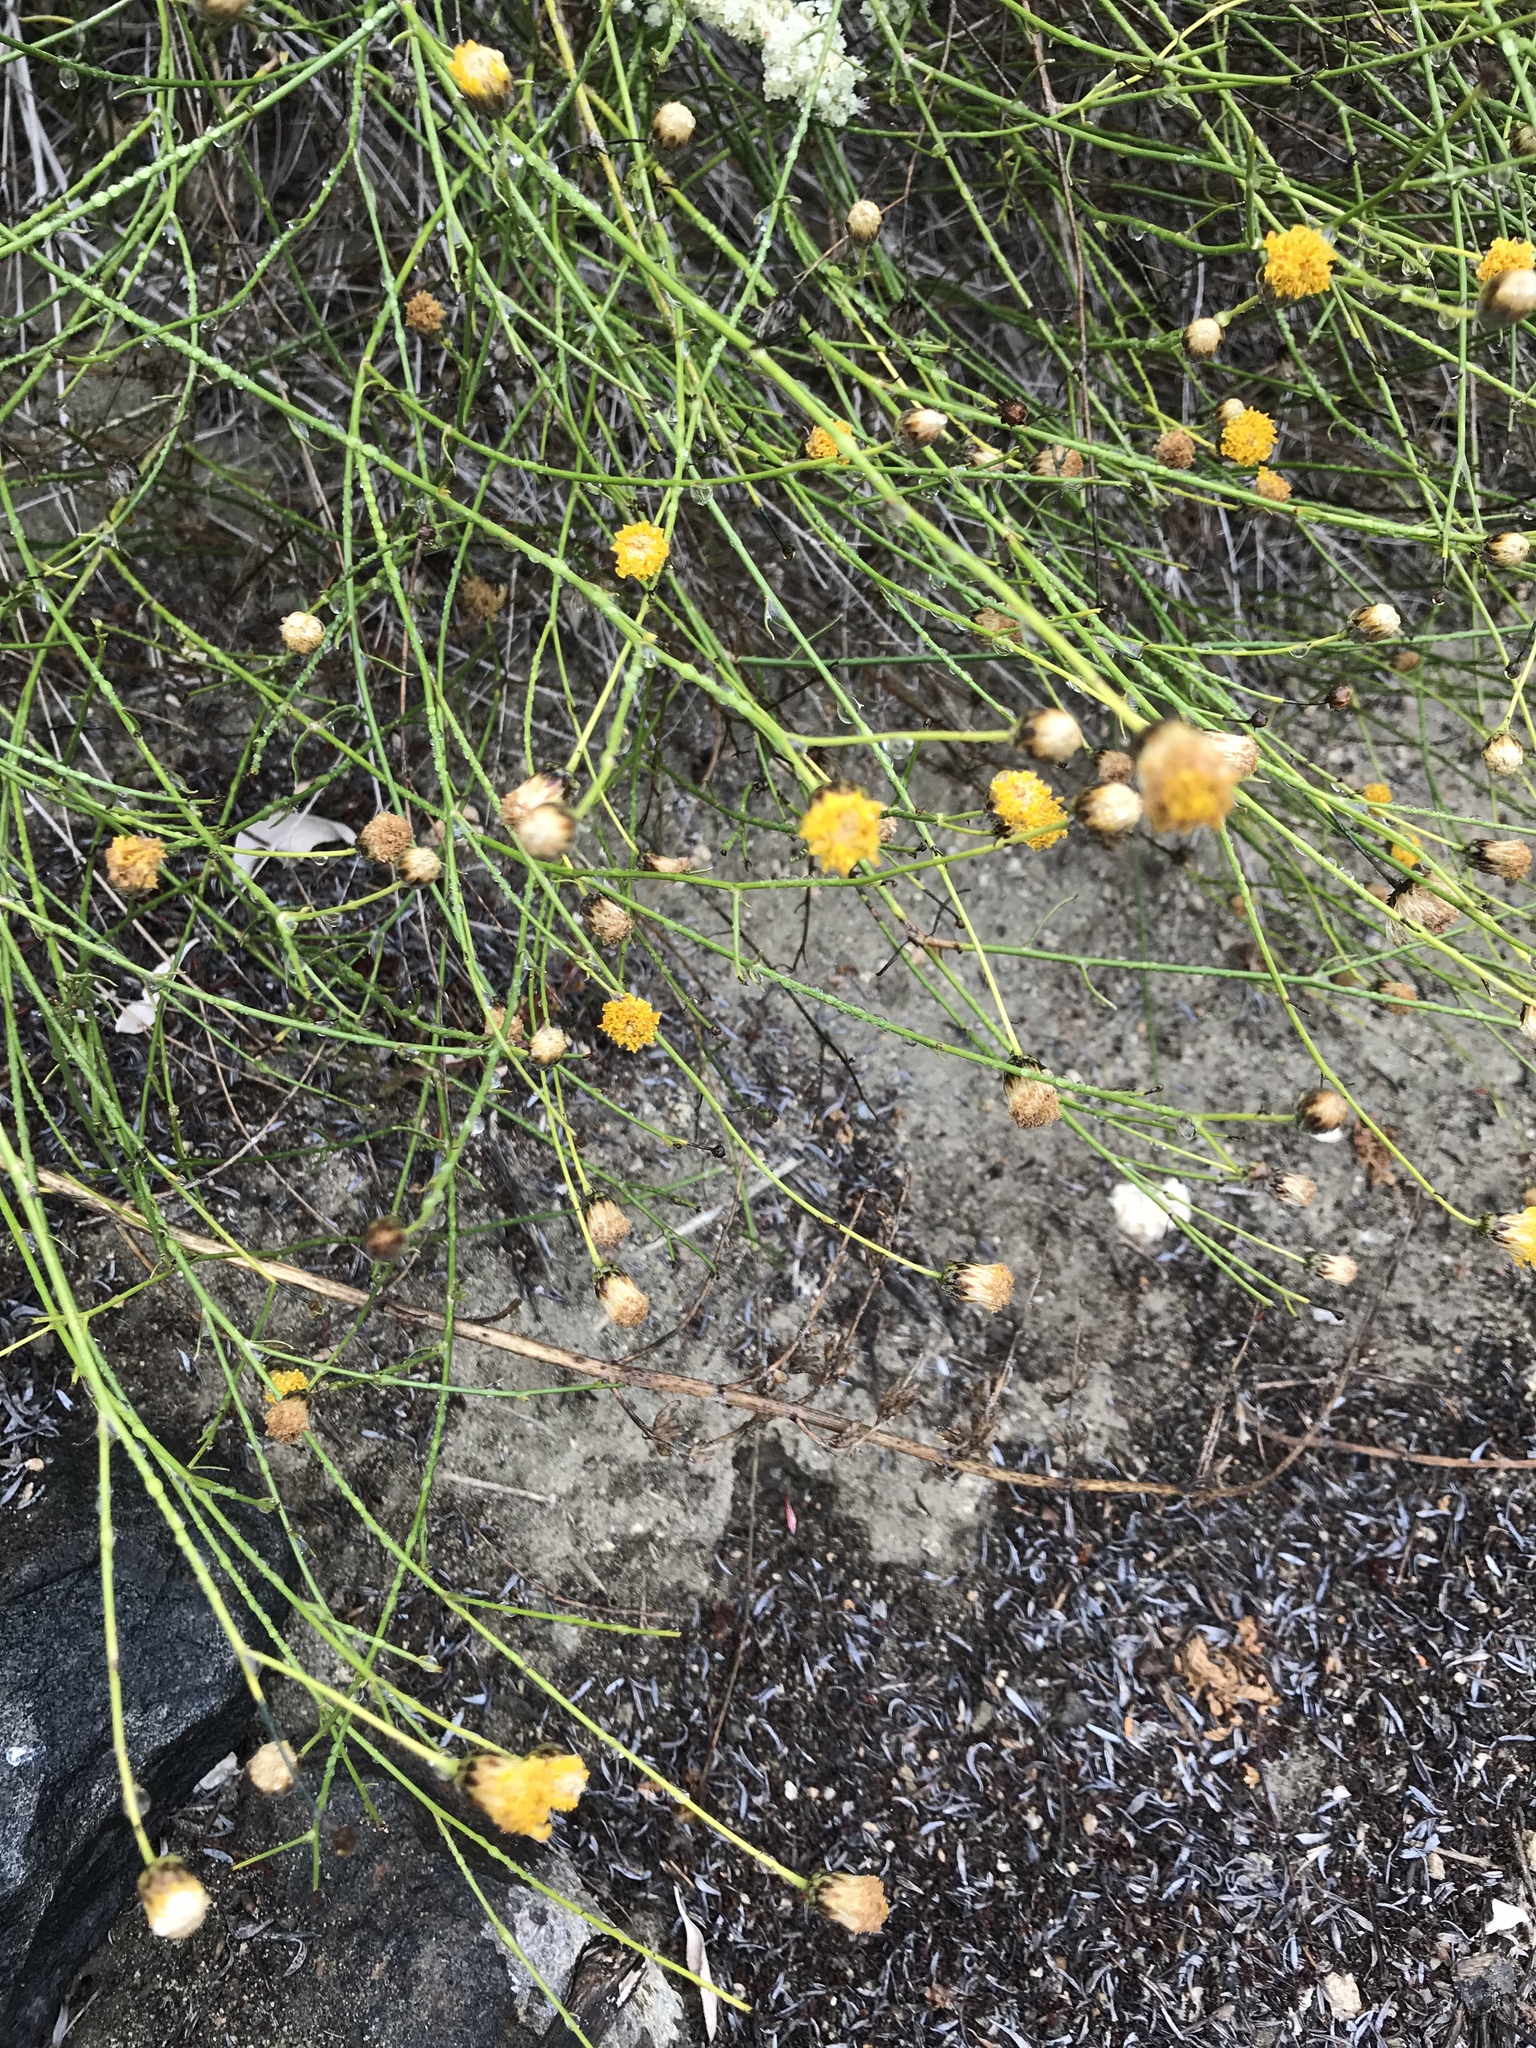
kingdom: Plantae
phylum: Tracheophyta
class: Magnoliopsida
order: Asterales
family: Asteraceae
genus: Bebbia
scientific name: Bebbia juncea
